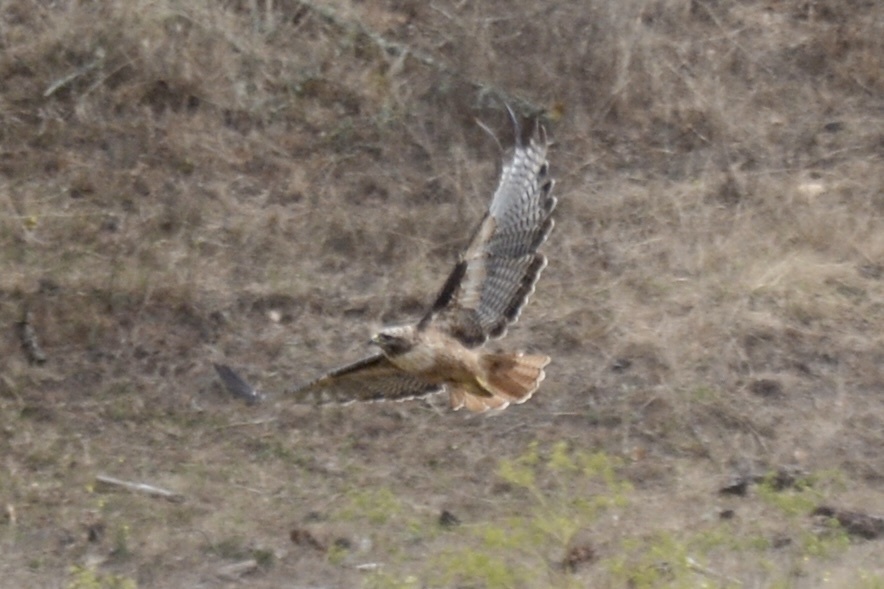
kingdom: Animalia
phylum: Chordata
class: Aves
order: Accipitriformes
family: Accipitridae
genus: Buteo
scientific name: Buteo jamaicensis
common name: Red-tailed hawk
